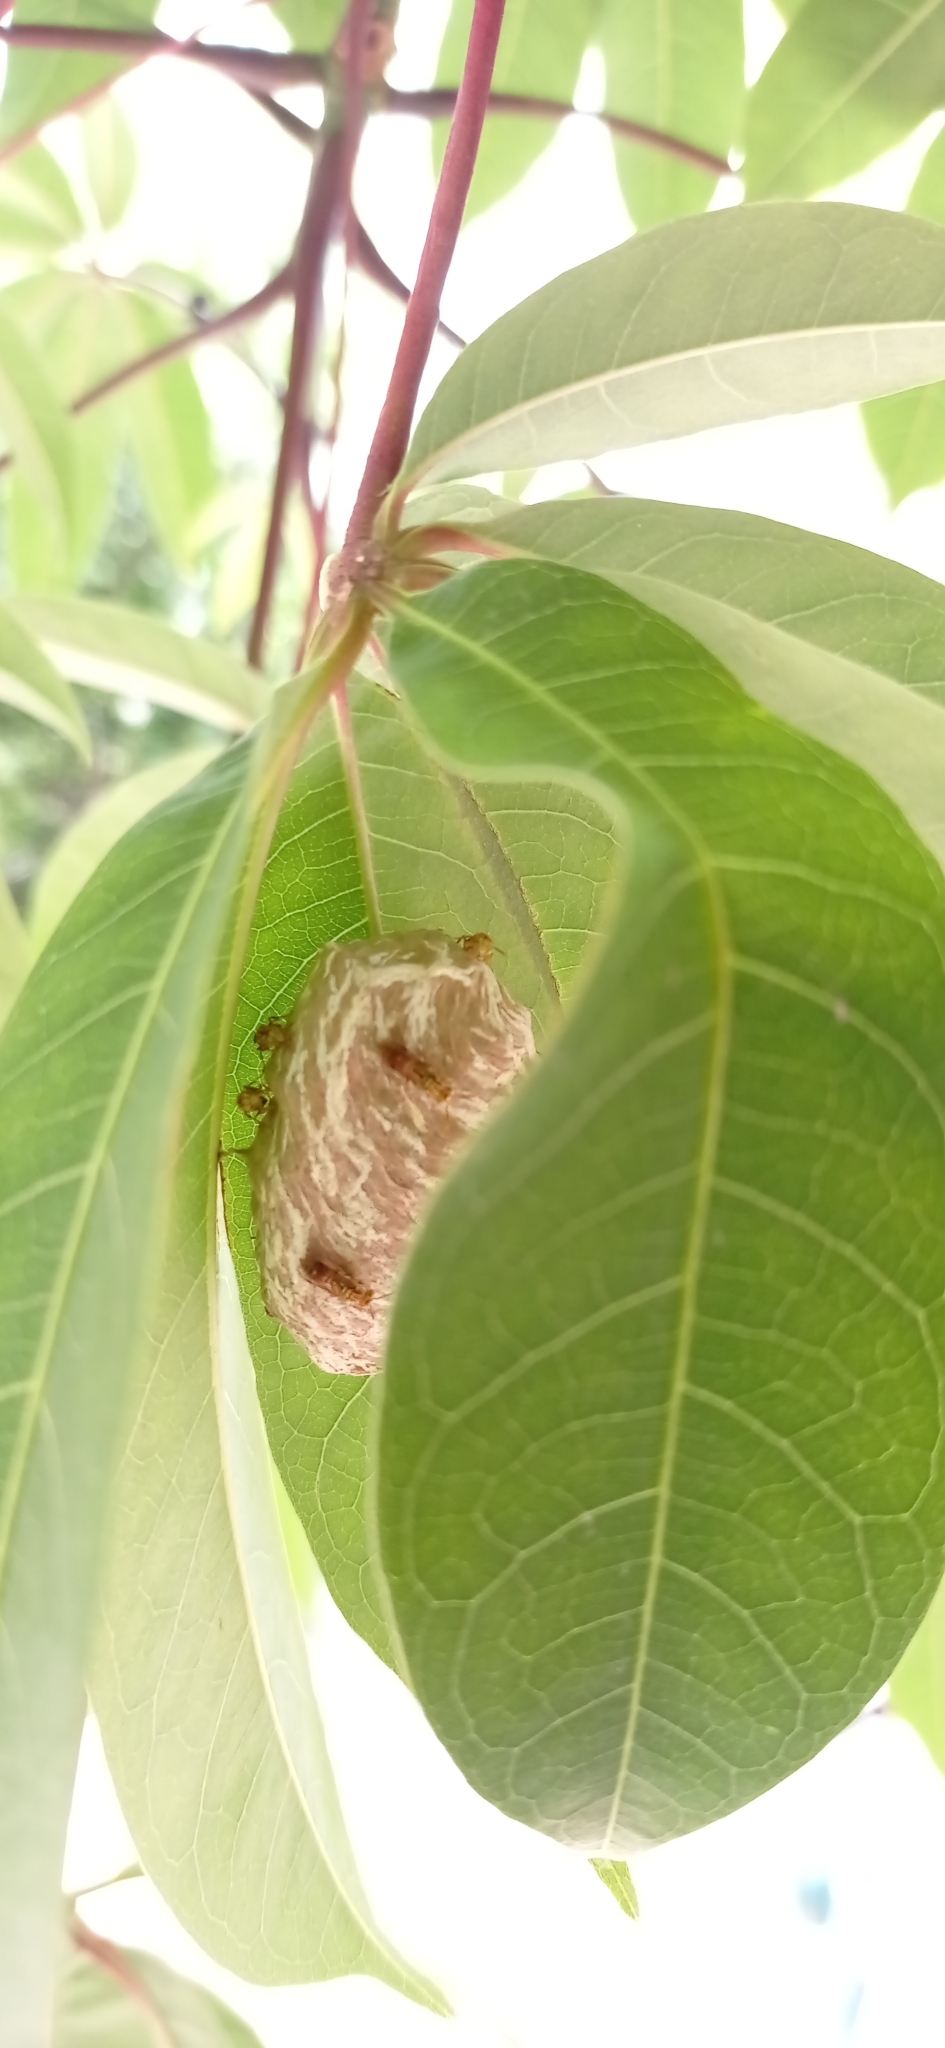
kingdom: Animalia
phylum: Arthropoda
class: Insecta
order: Hymenoptera
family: Vespidae
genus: Protopolybia
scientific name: Protopolybia potiguara
